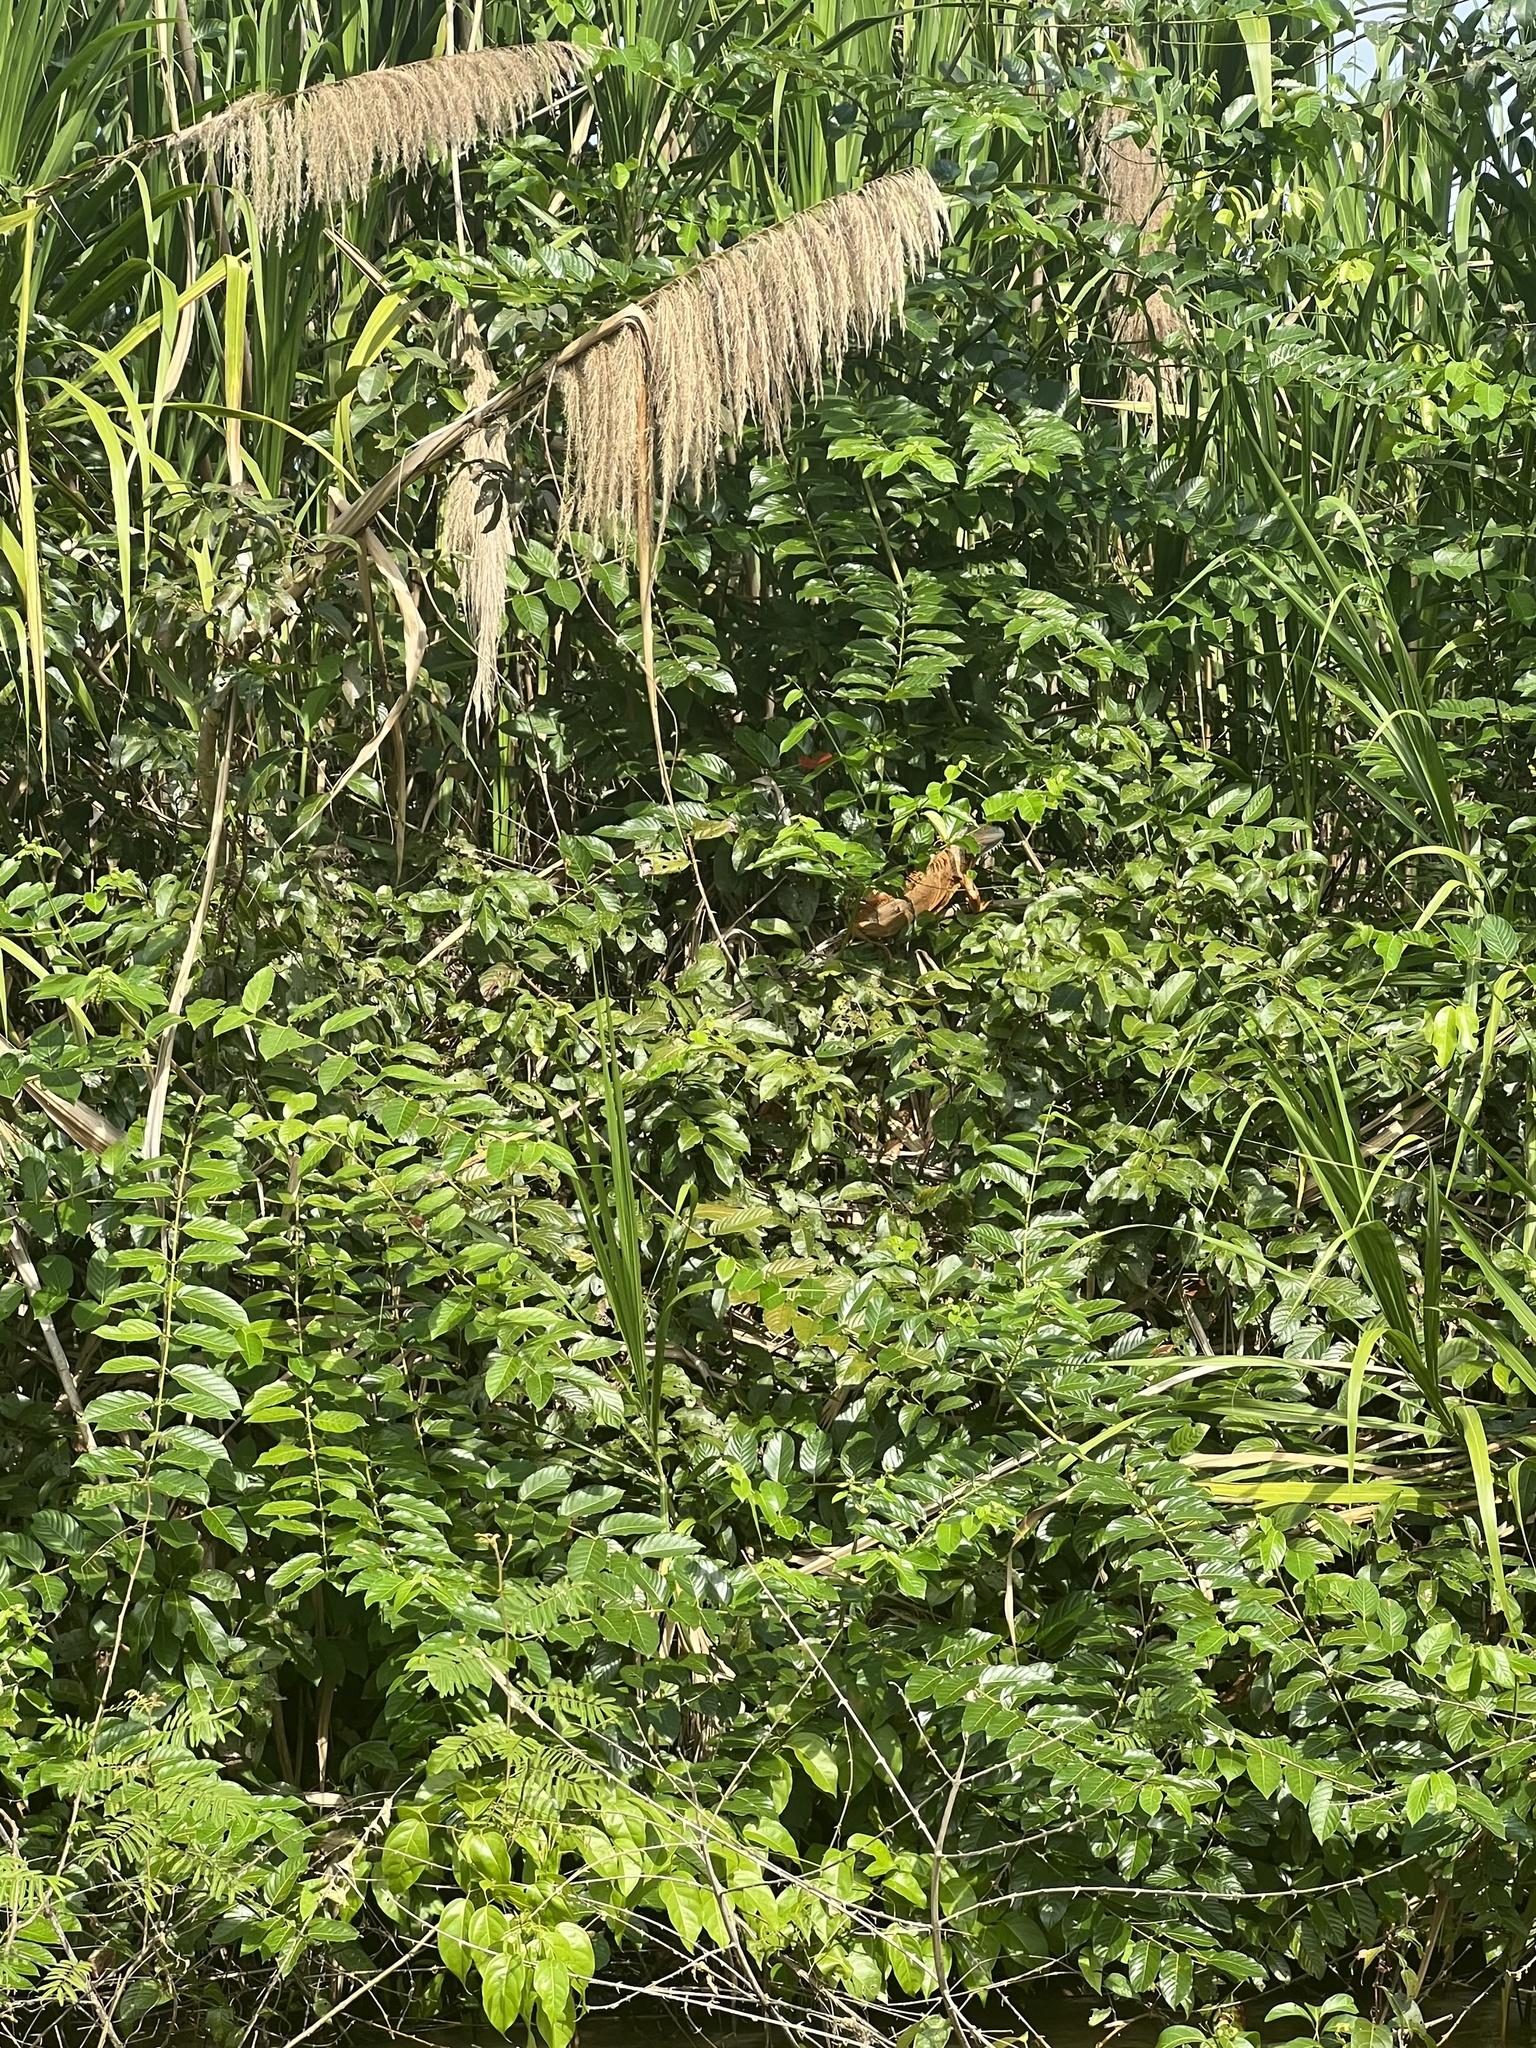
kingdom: Animalia
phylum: Chordata
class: Squamata
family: Iguanidae
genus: Iguana
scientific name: Iguana iguana
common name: Green iguana
